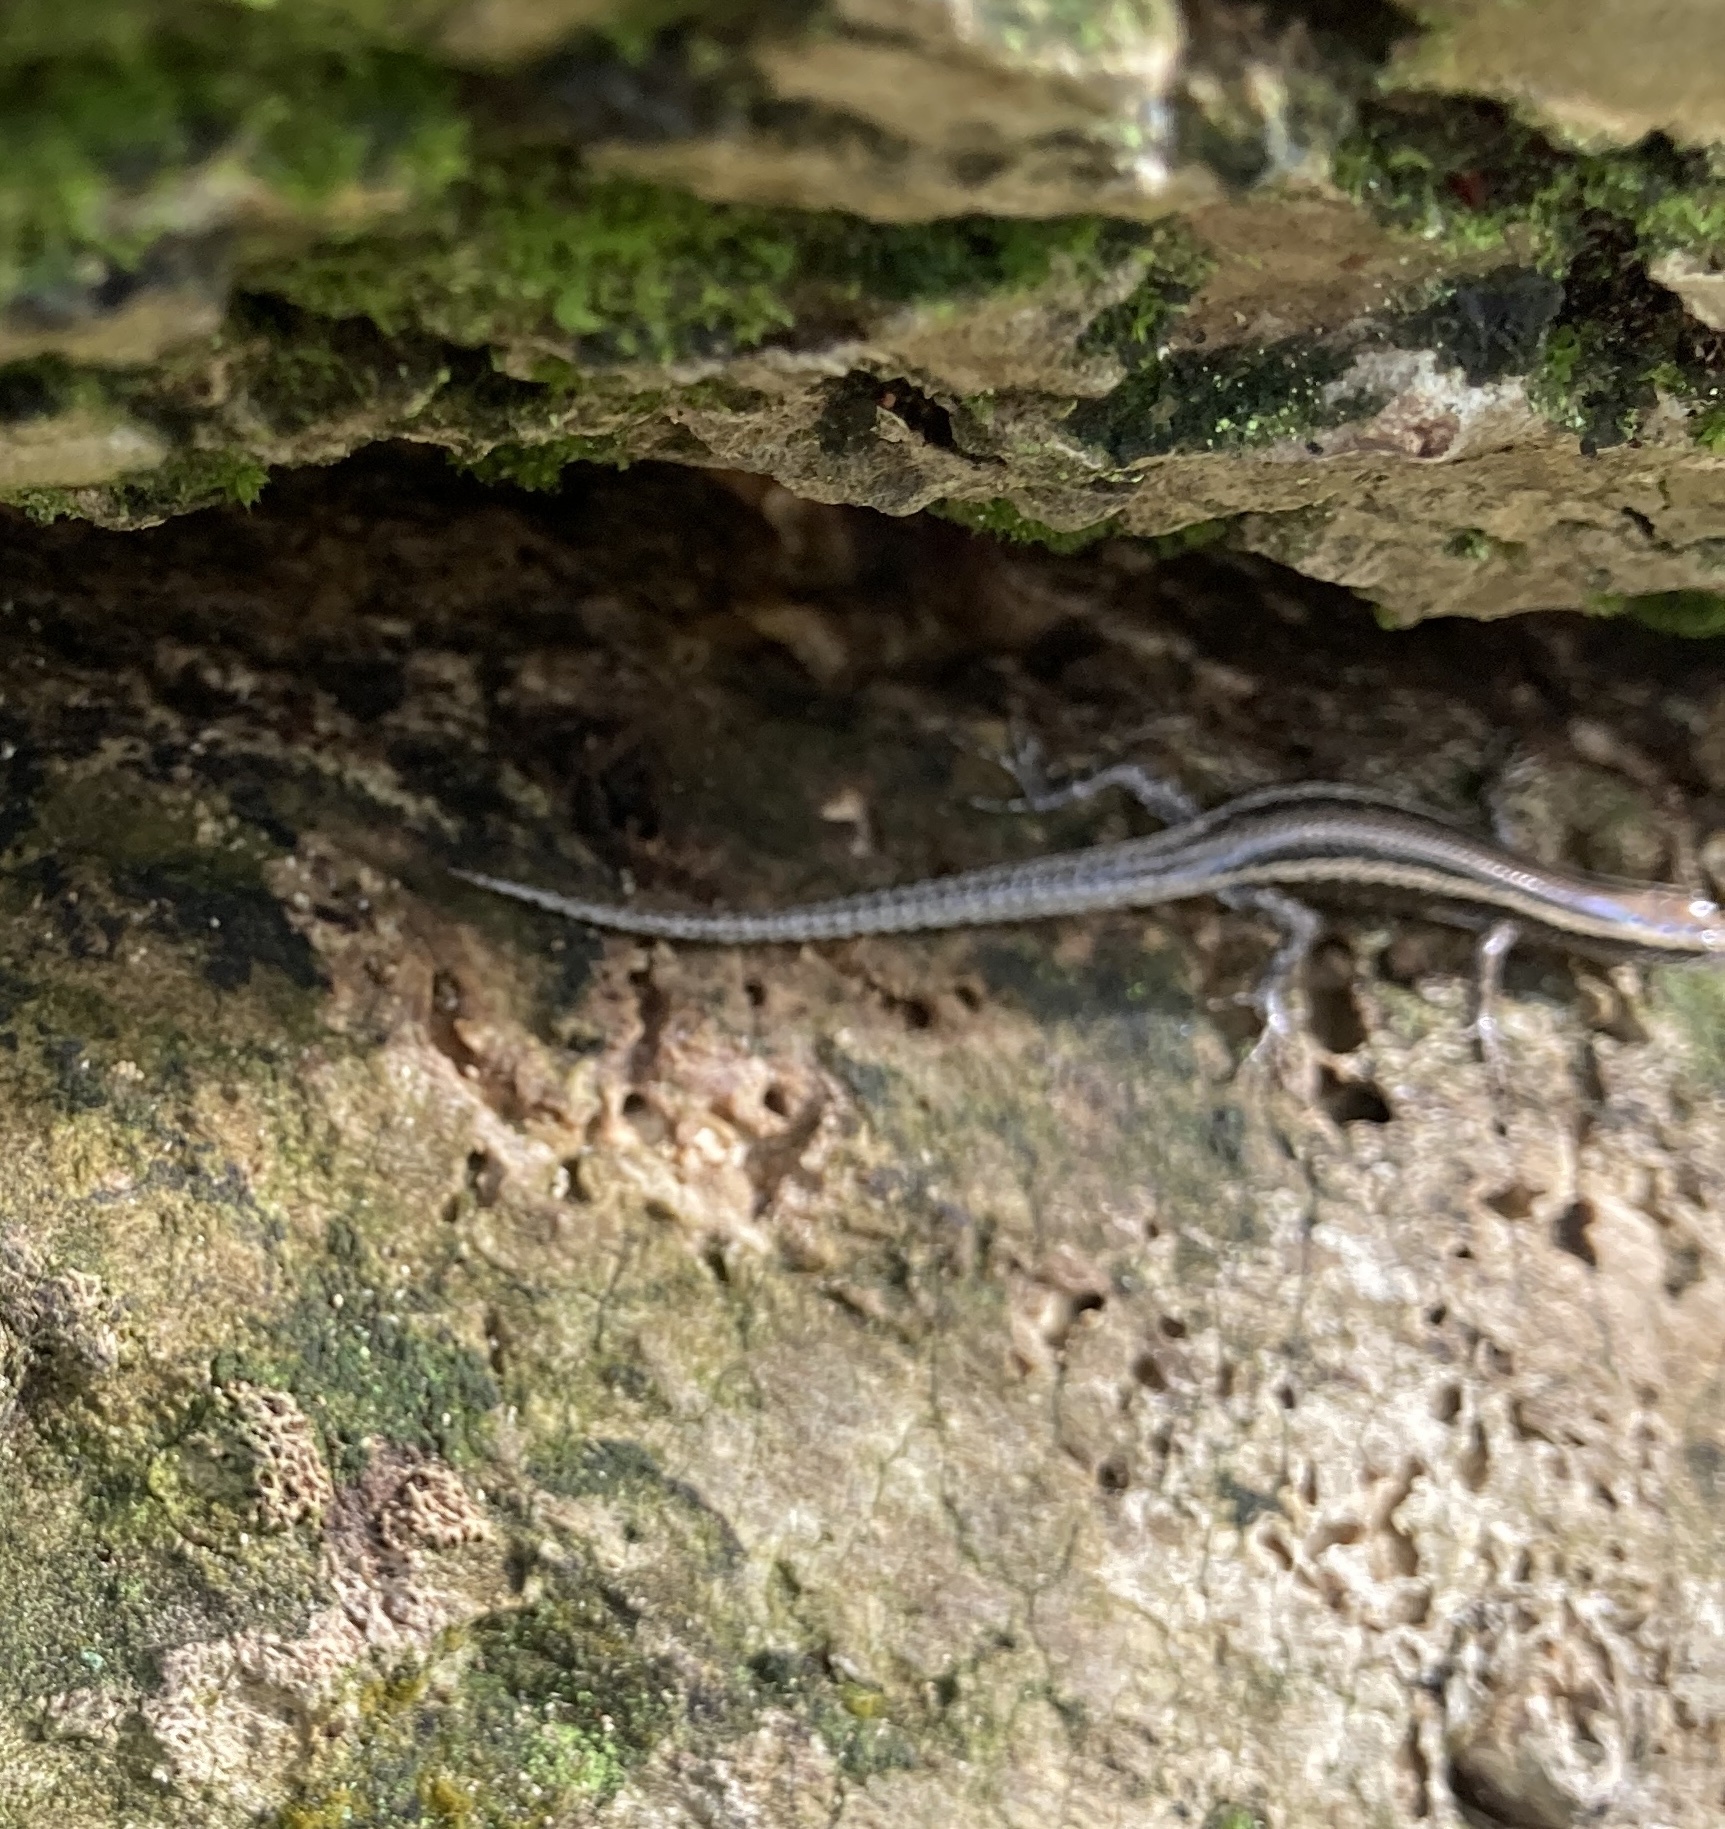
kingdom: Animalia
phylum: Chordata
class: Squamata
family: Scincidae
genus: Cryptoblepharus
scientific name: Cryptoblepharus virgatus
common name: Cream-striped shinning-skink
